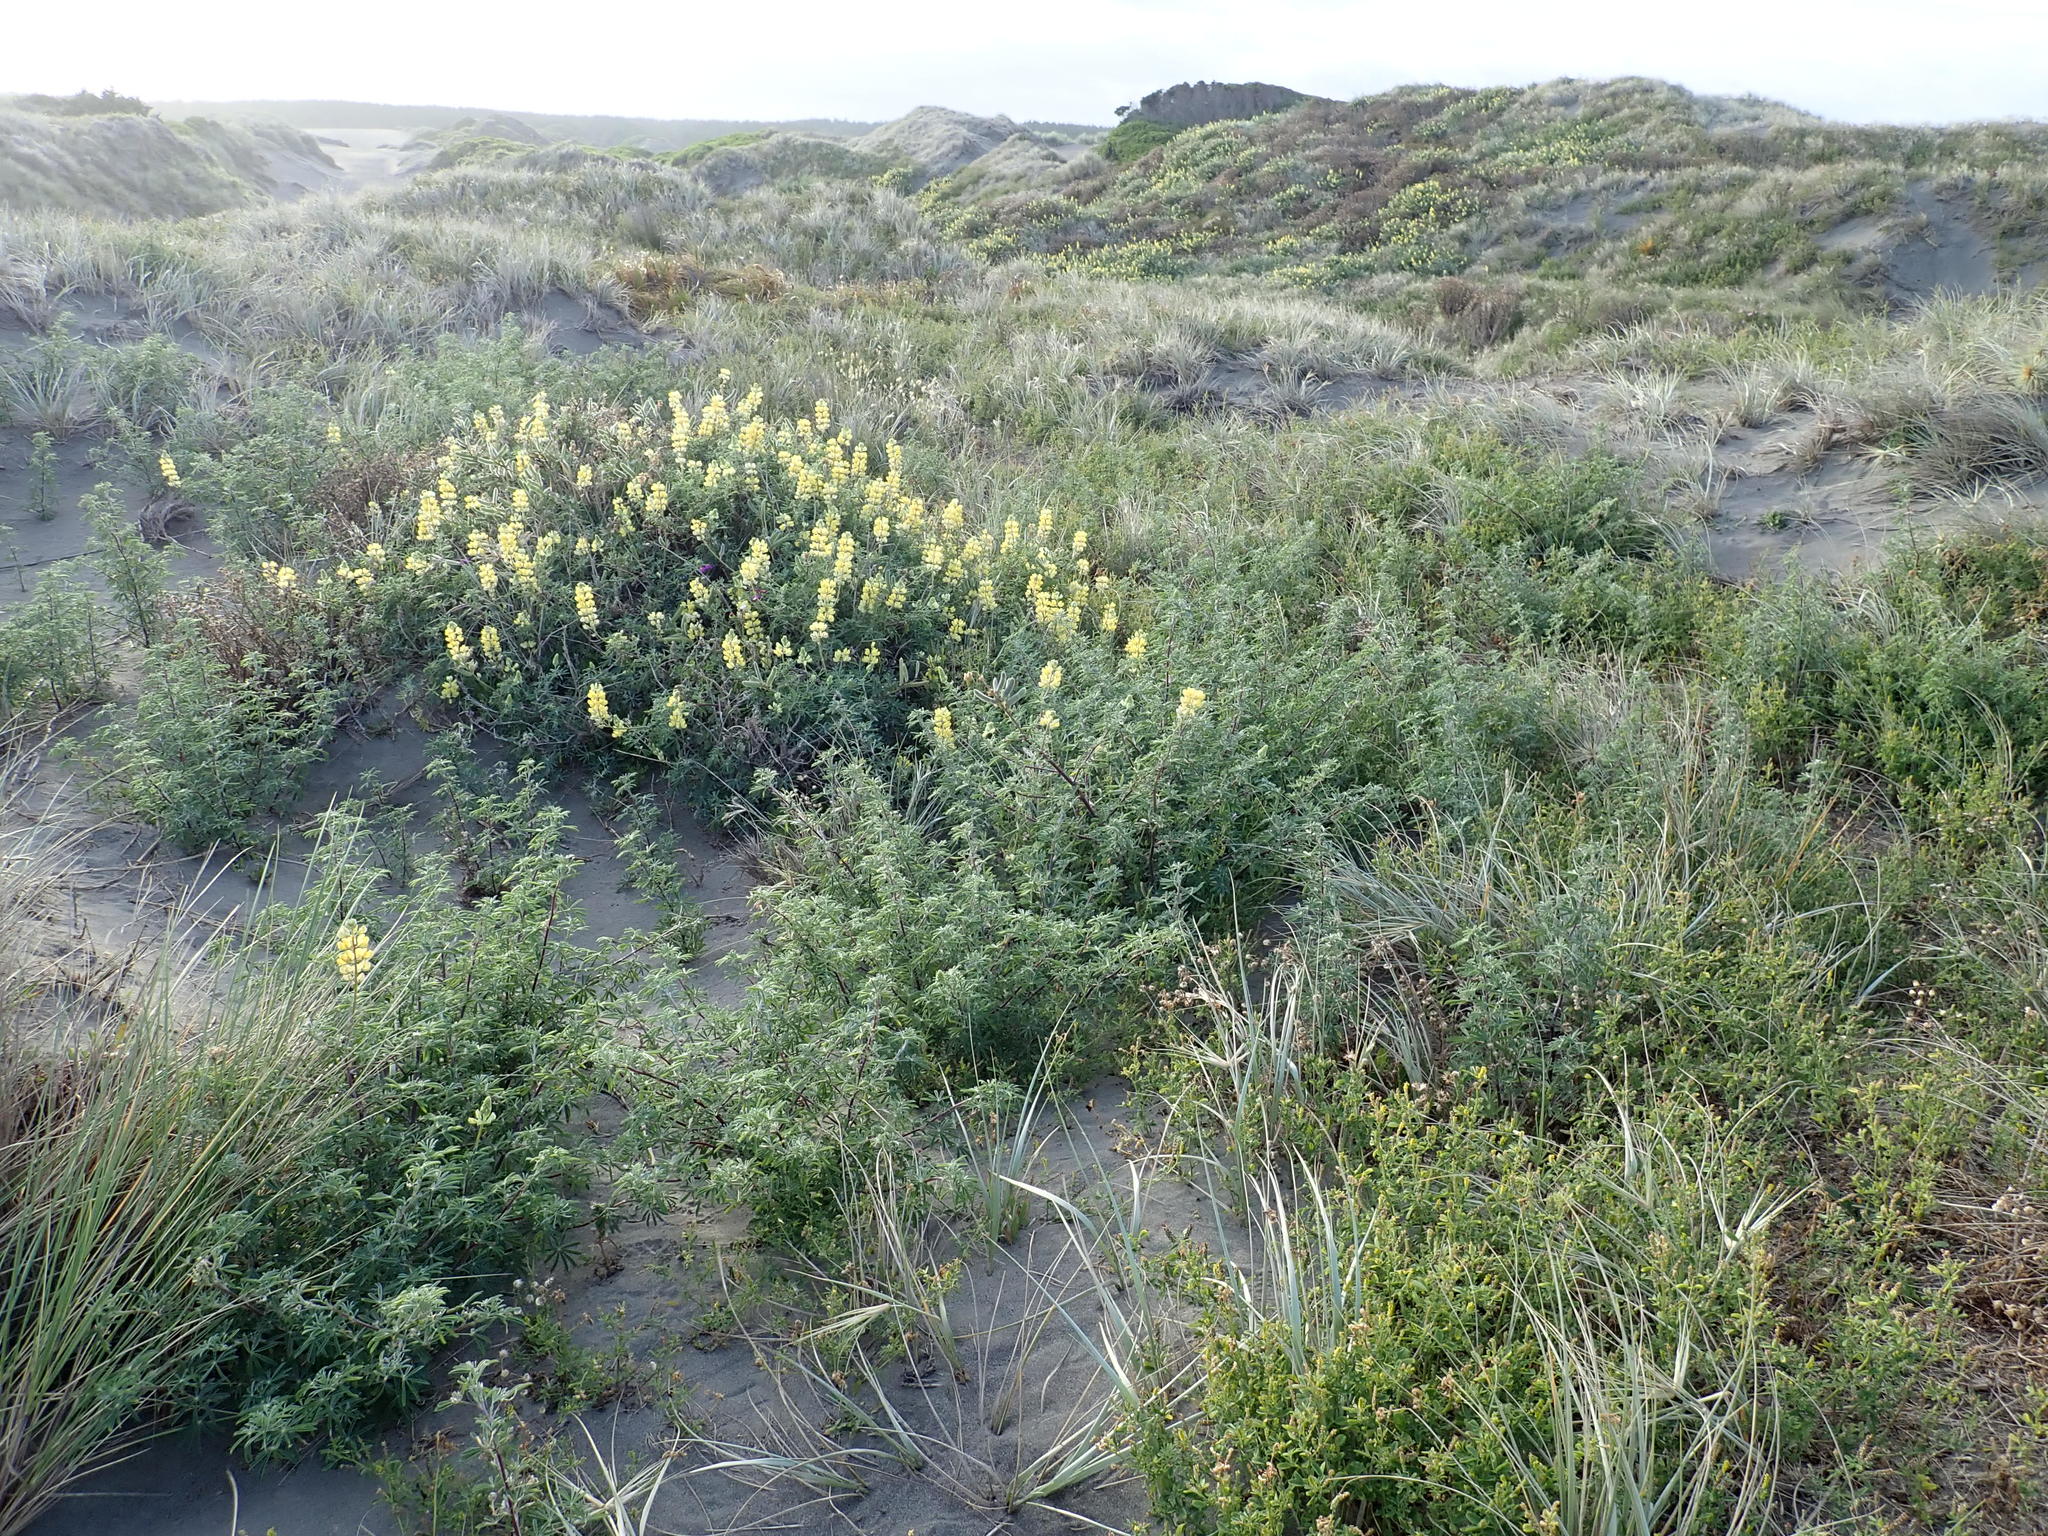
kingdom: Plantae
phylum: Tracheophyta
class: Magnoliopsida
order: Fabales
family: Fabaceae
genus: Lupinus
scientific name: Lupinus arboreus
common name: Yellow bush lupine
